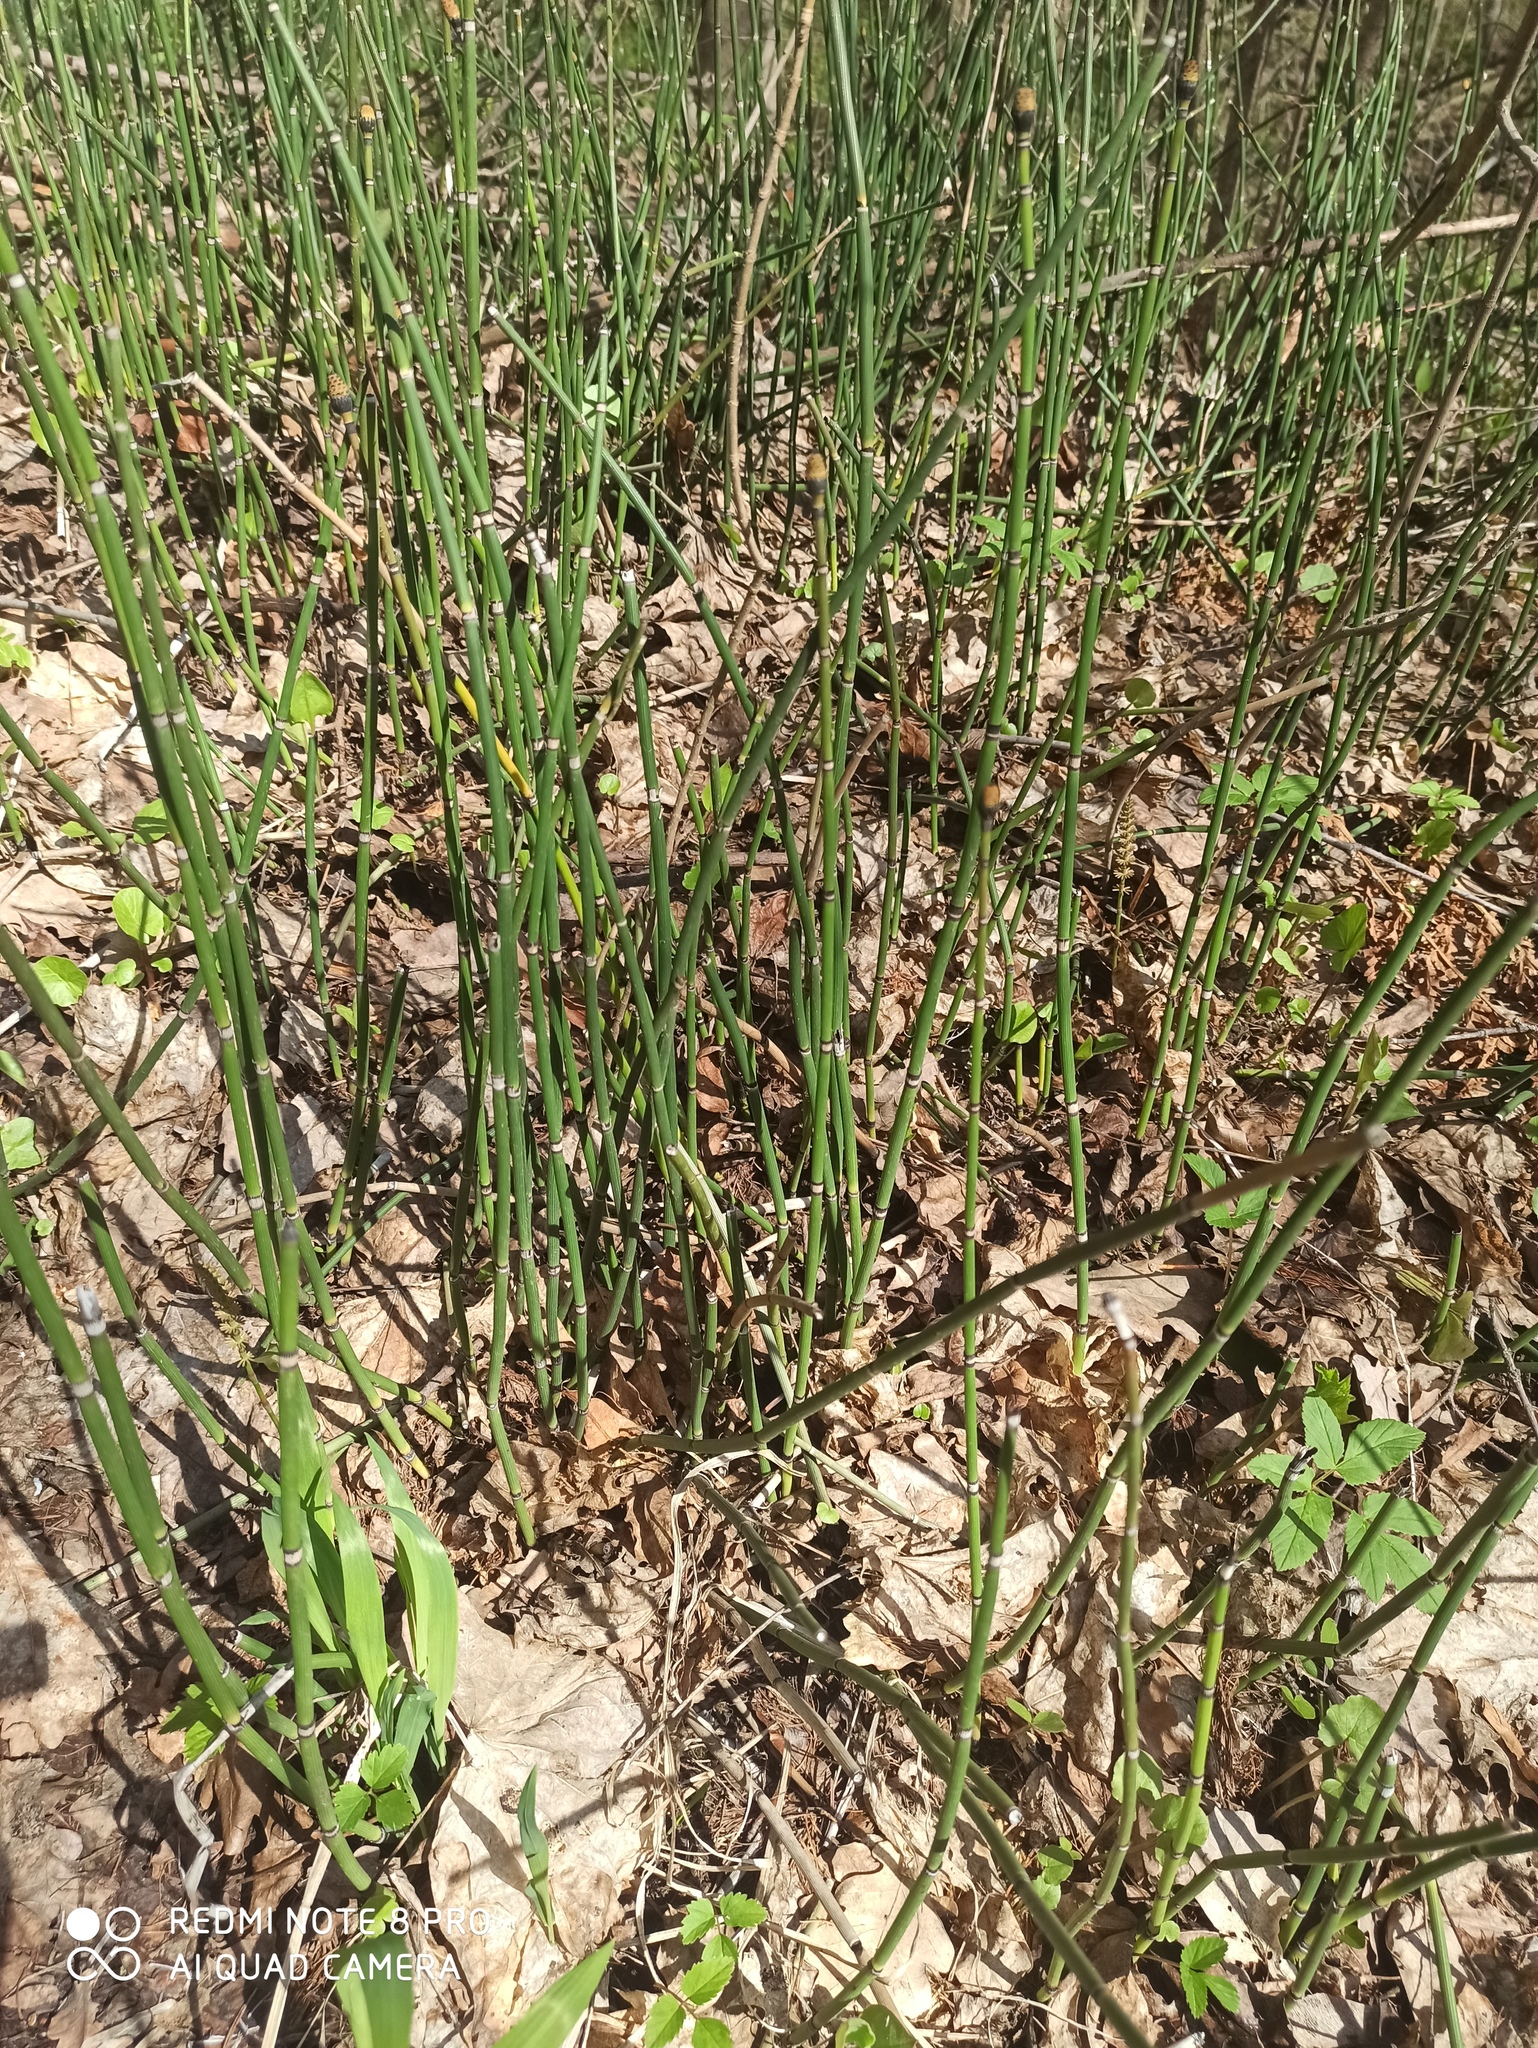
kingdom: Plantae
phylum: Tracheophyta
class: Polypodiopsida
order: Equisetales
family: Equisetaceae
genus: Equisetum
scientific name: Equisetum hyemale
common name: Rough horsetail
